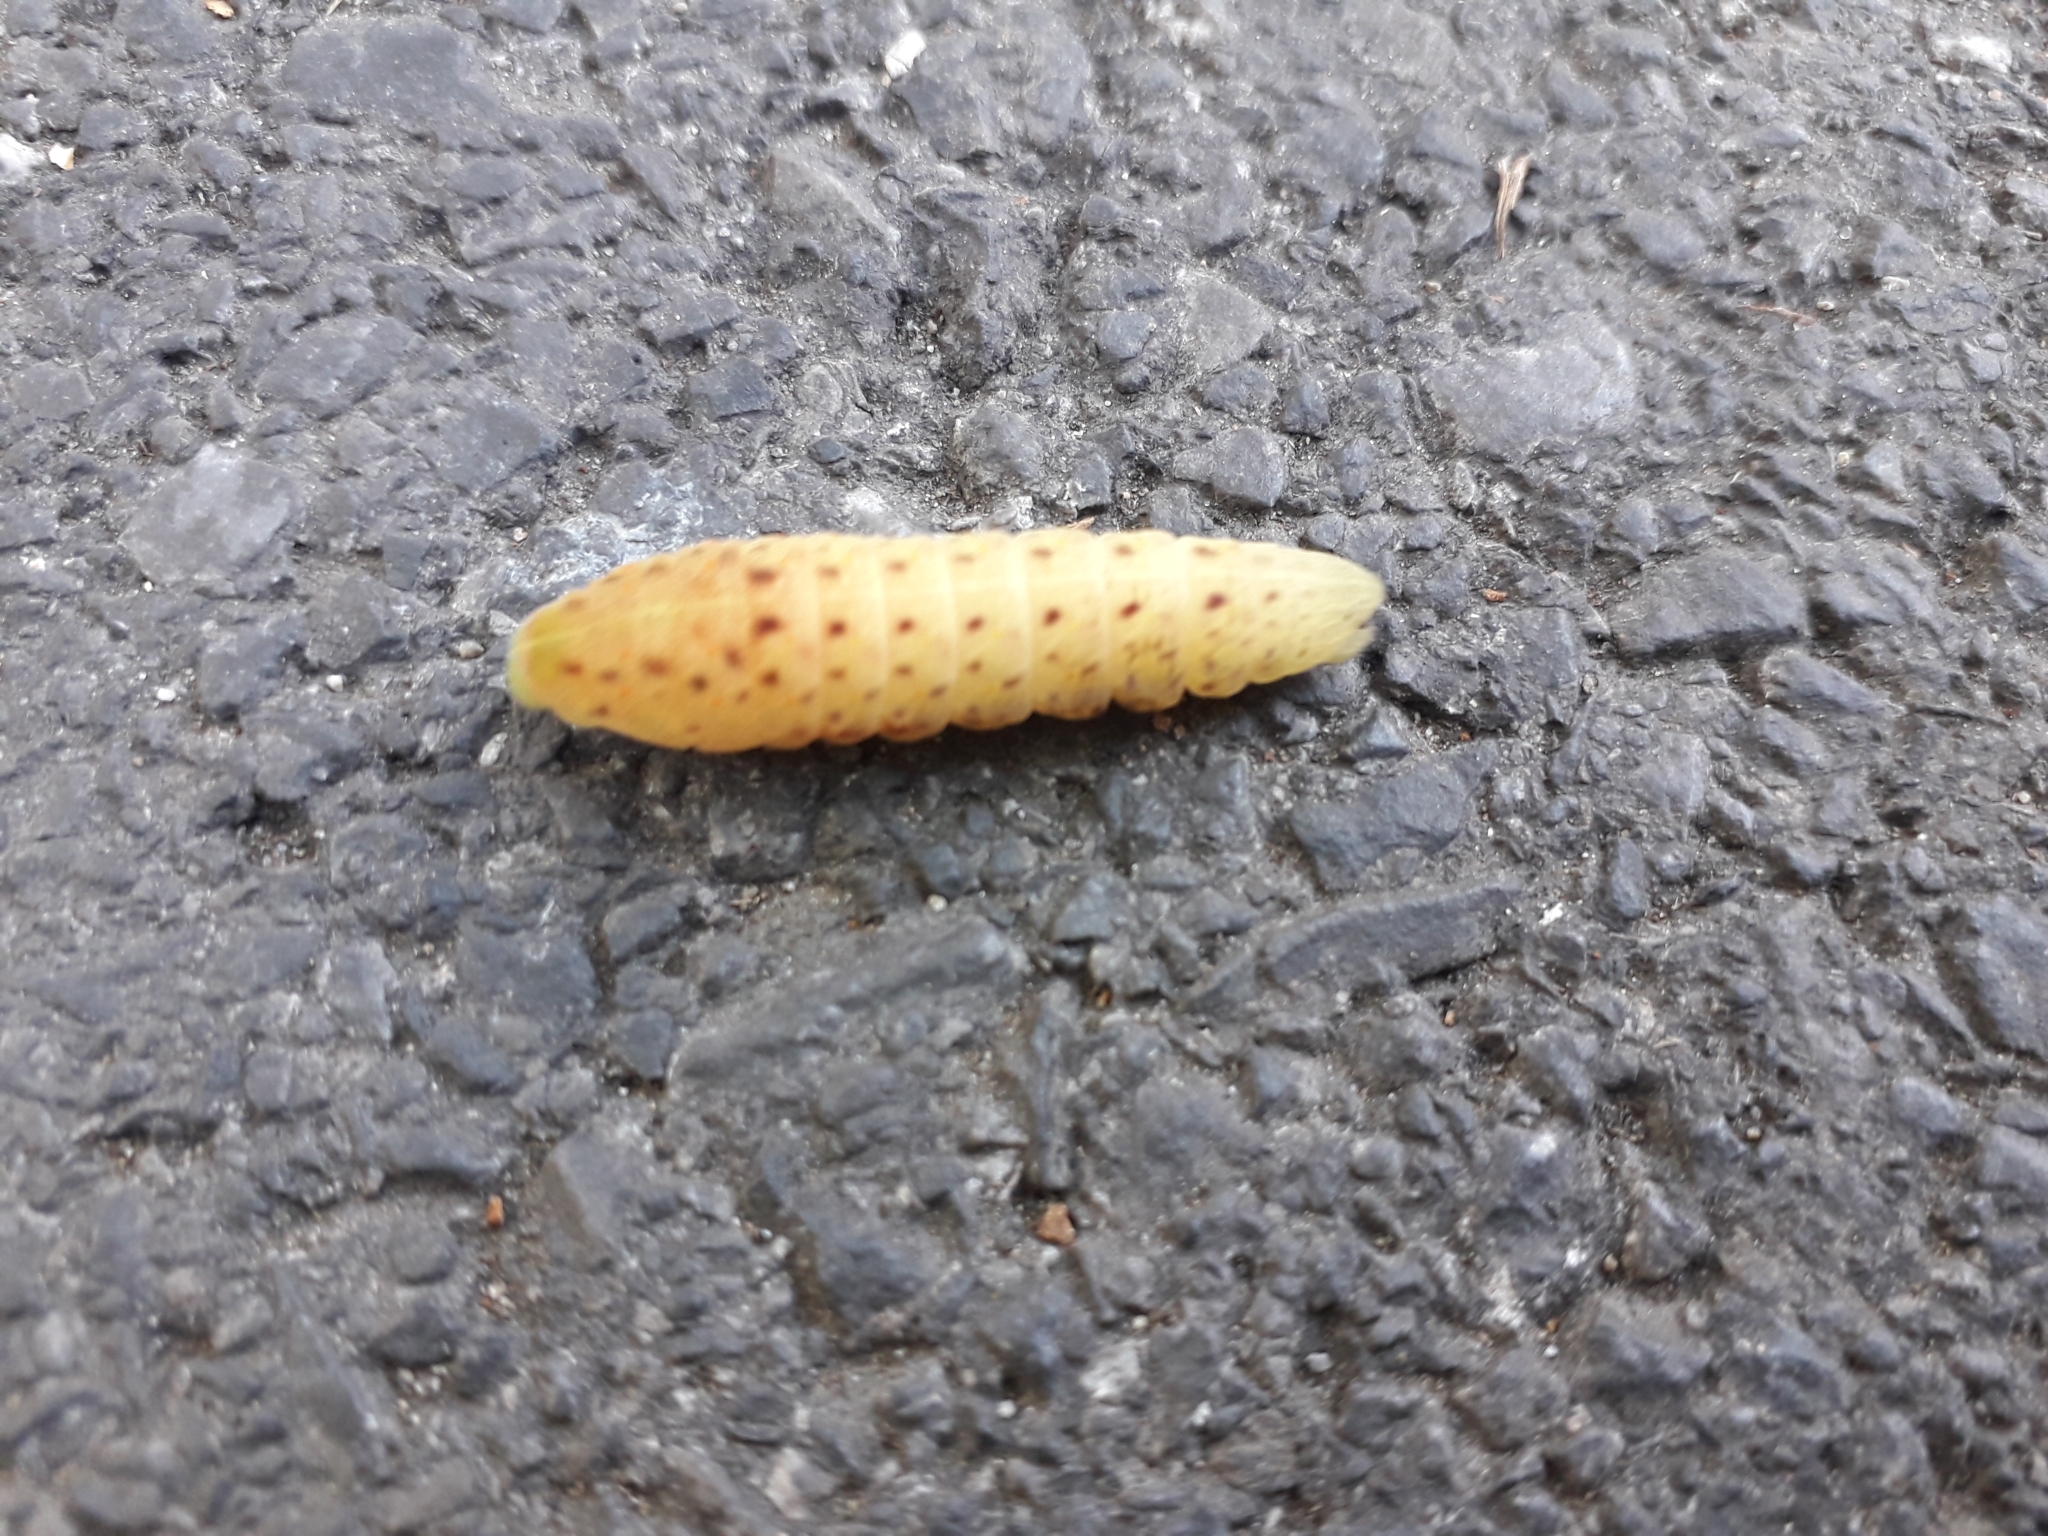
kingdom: Animalia
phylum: Arthropoda
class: Insecta
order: Lepidoptera
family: Papilionidae
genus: Iphiclides
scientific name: Iphiclides podalirius
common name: Scarce swallowtail
